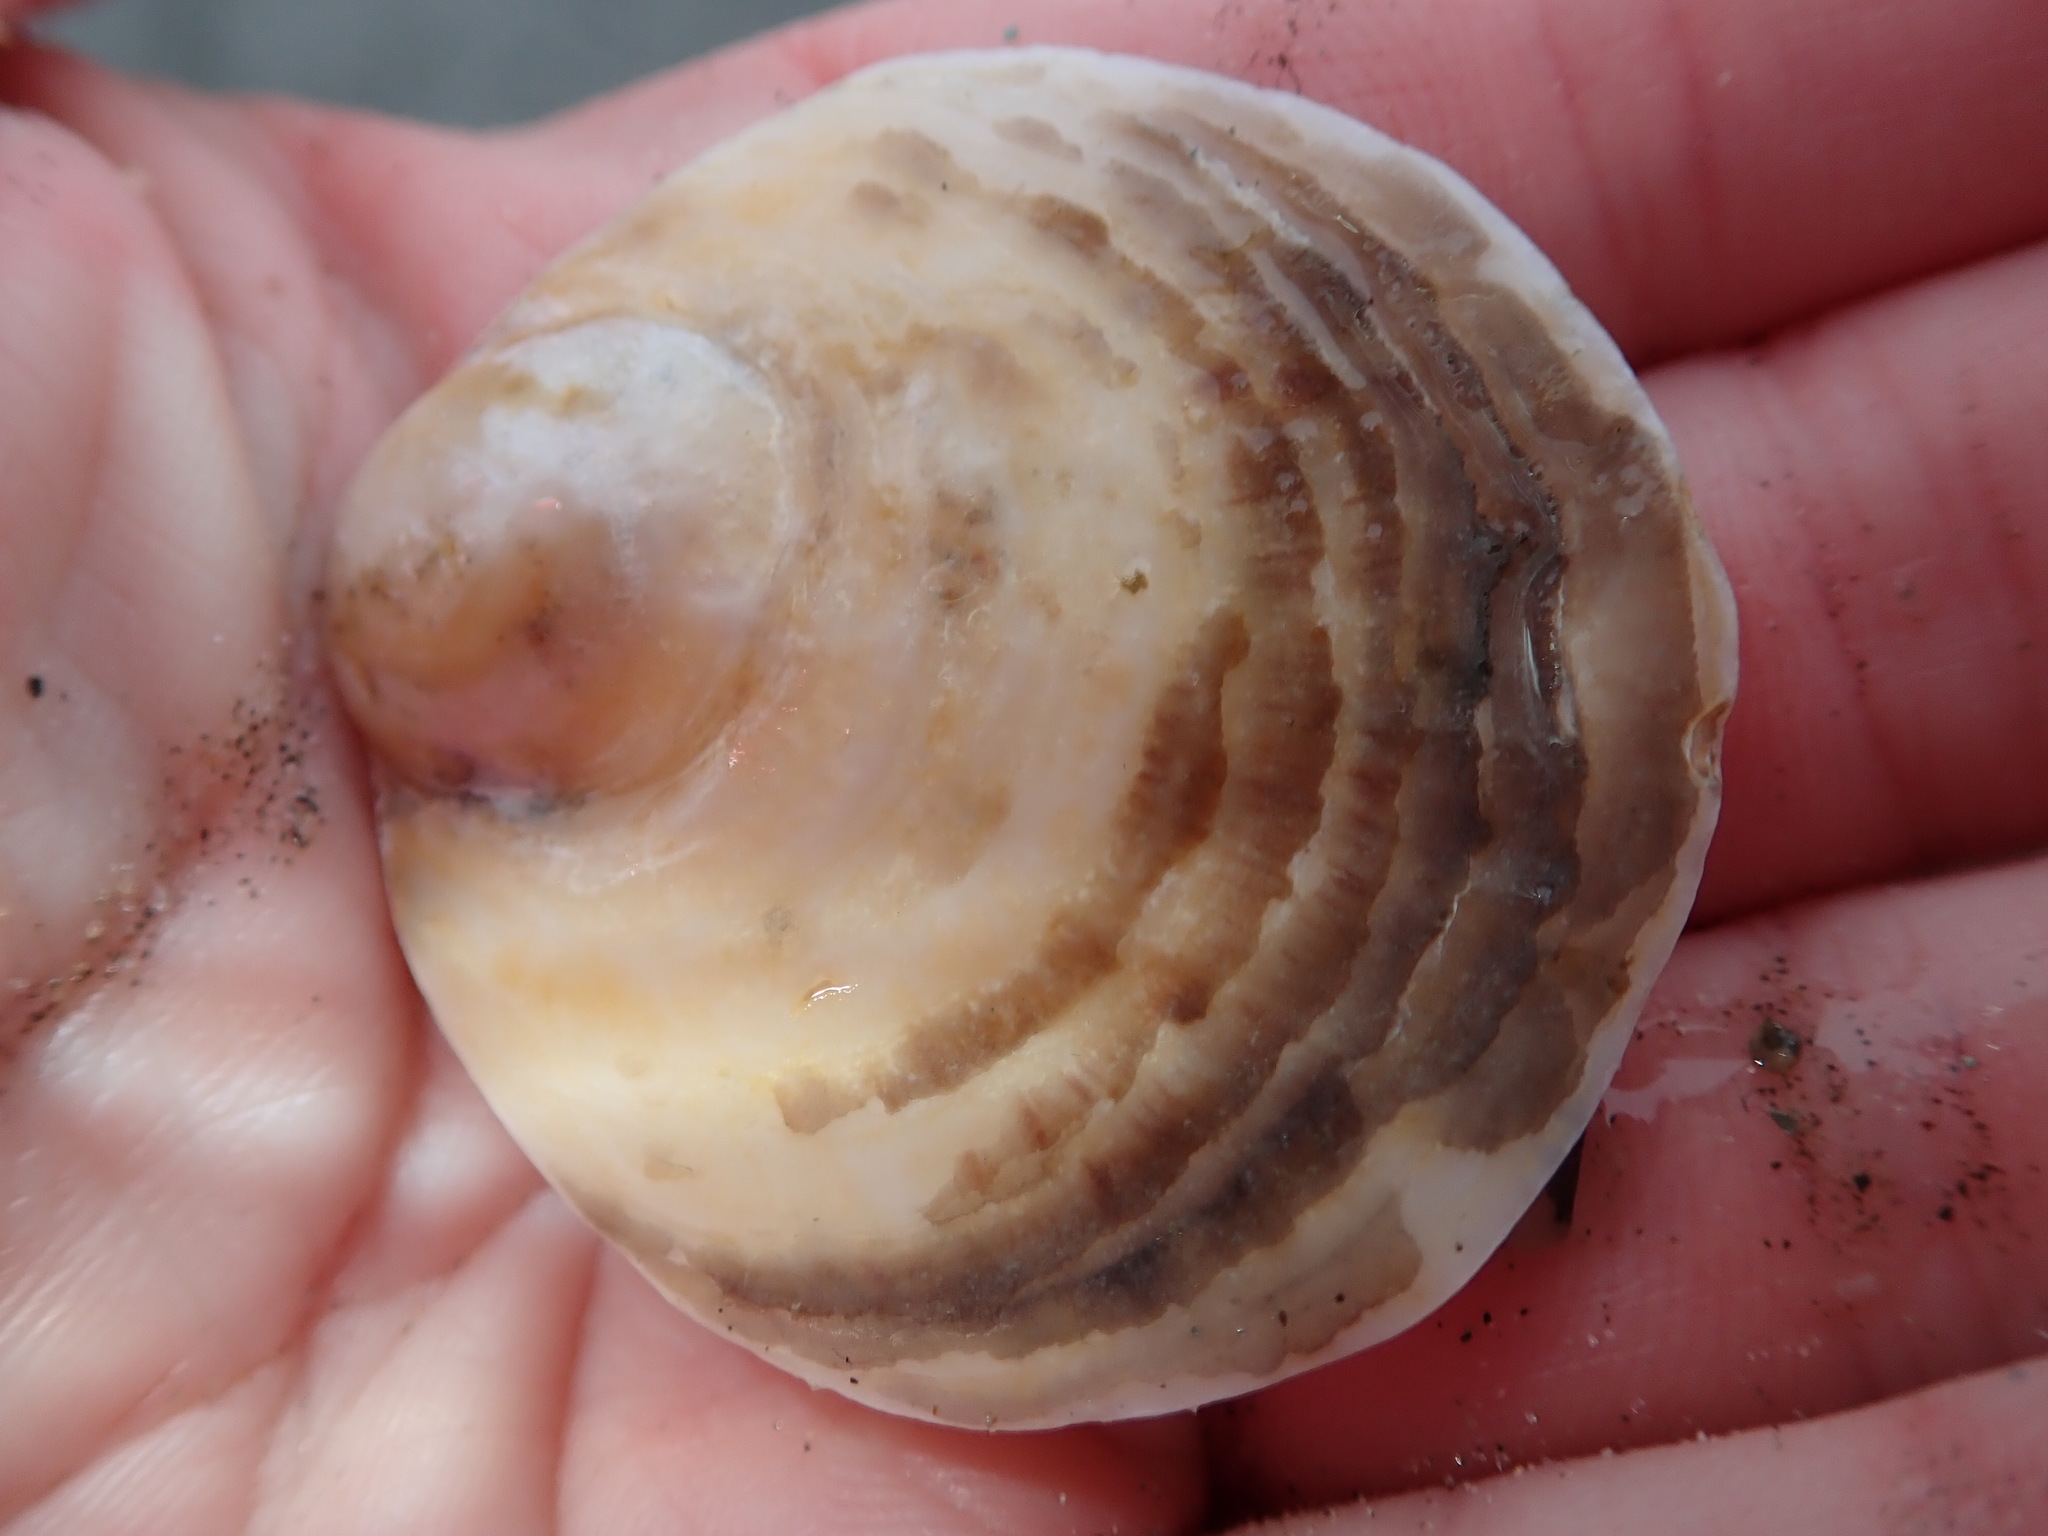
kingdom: Animalia
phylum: Mollusca
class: Bivalvia
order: Ostreida
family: Ostreidae
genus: Ostrea
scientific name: Ostrea edulis
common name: Flat oyster
